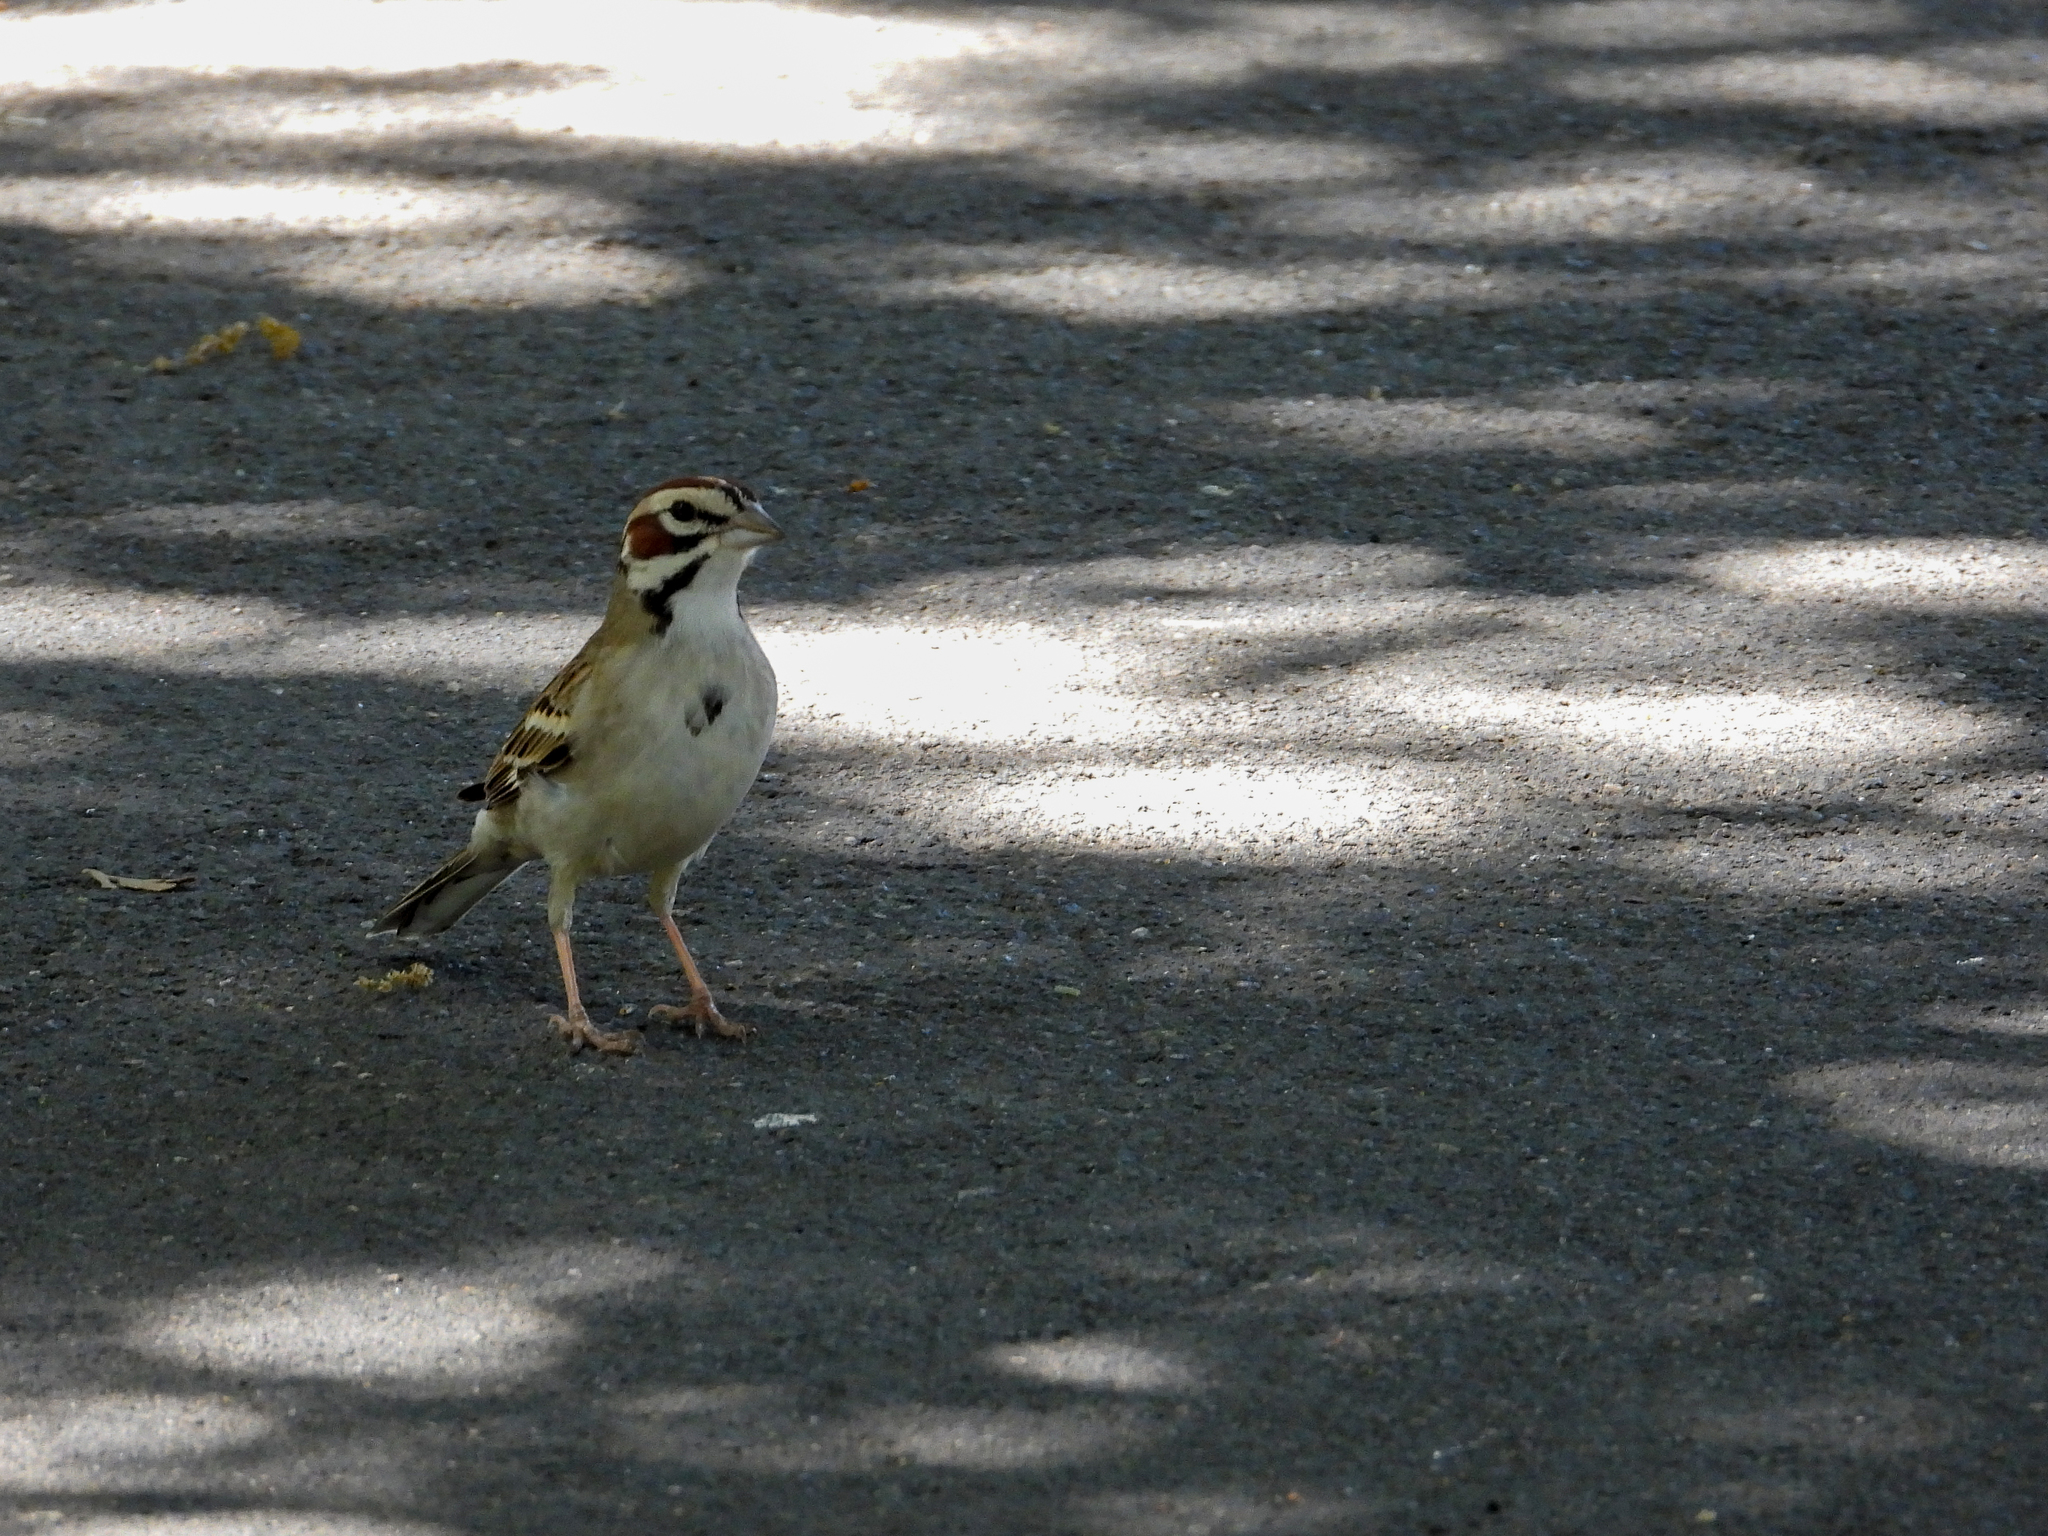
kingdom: Animalia
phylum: Chordata
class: Aves
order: Passeriformes
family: Passerellidae
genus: Chondestes
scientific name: Chondestes grammacus
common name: Lark sparrow
